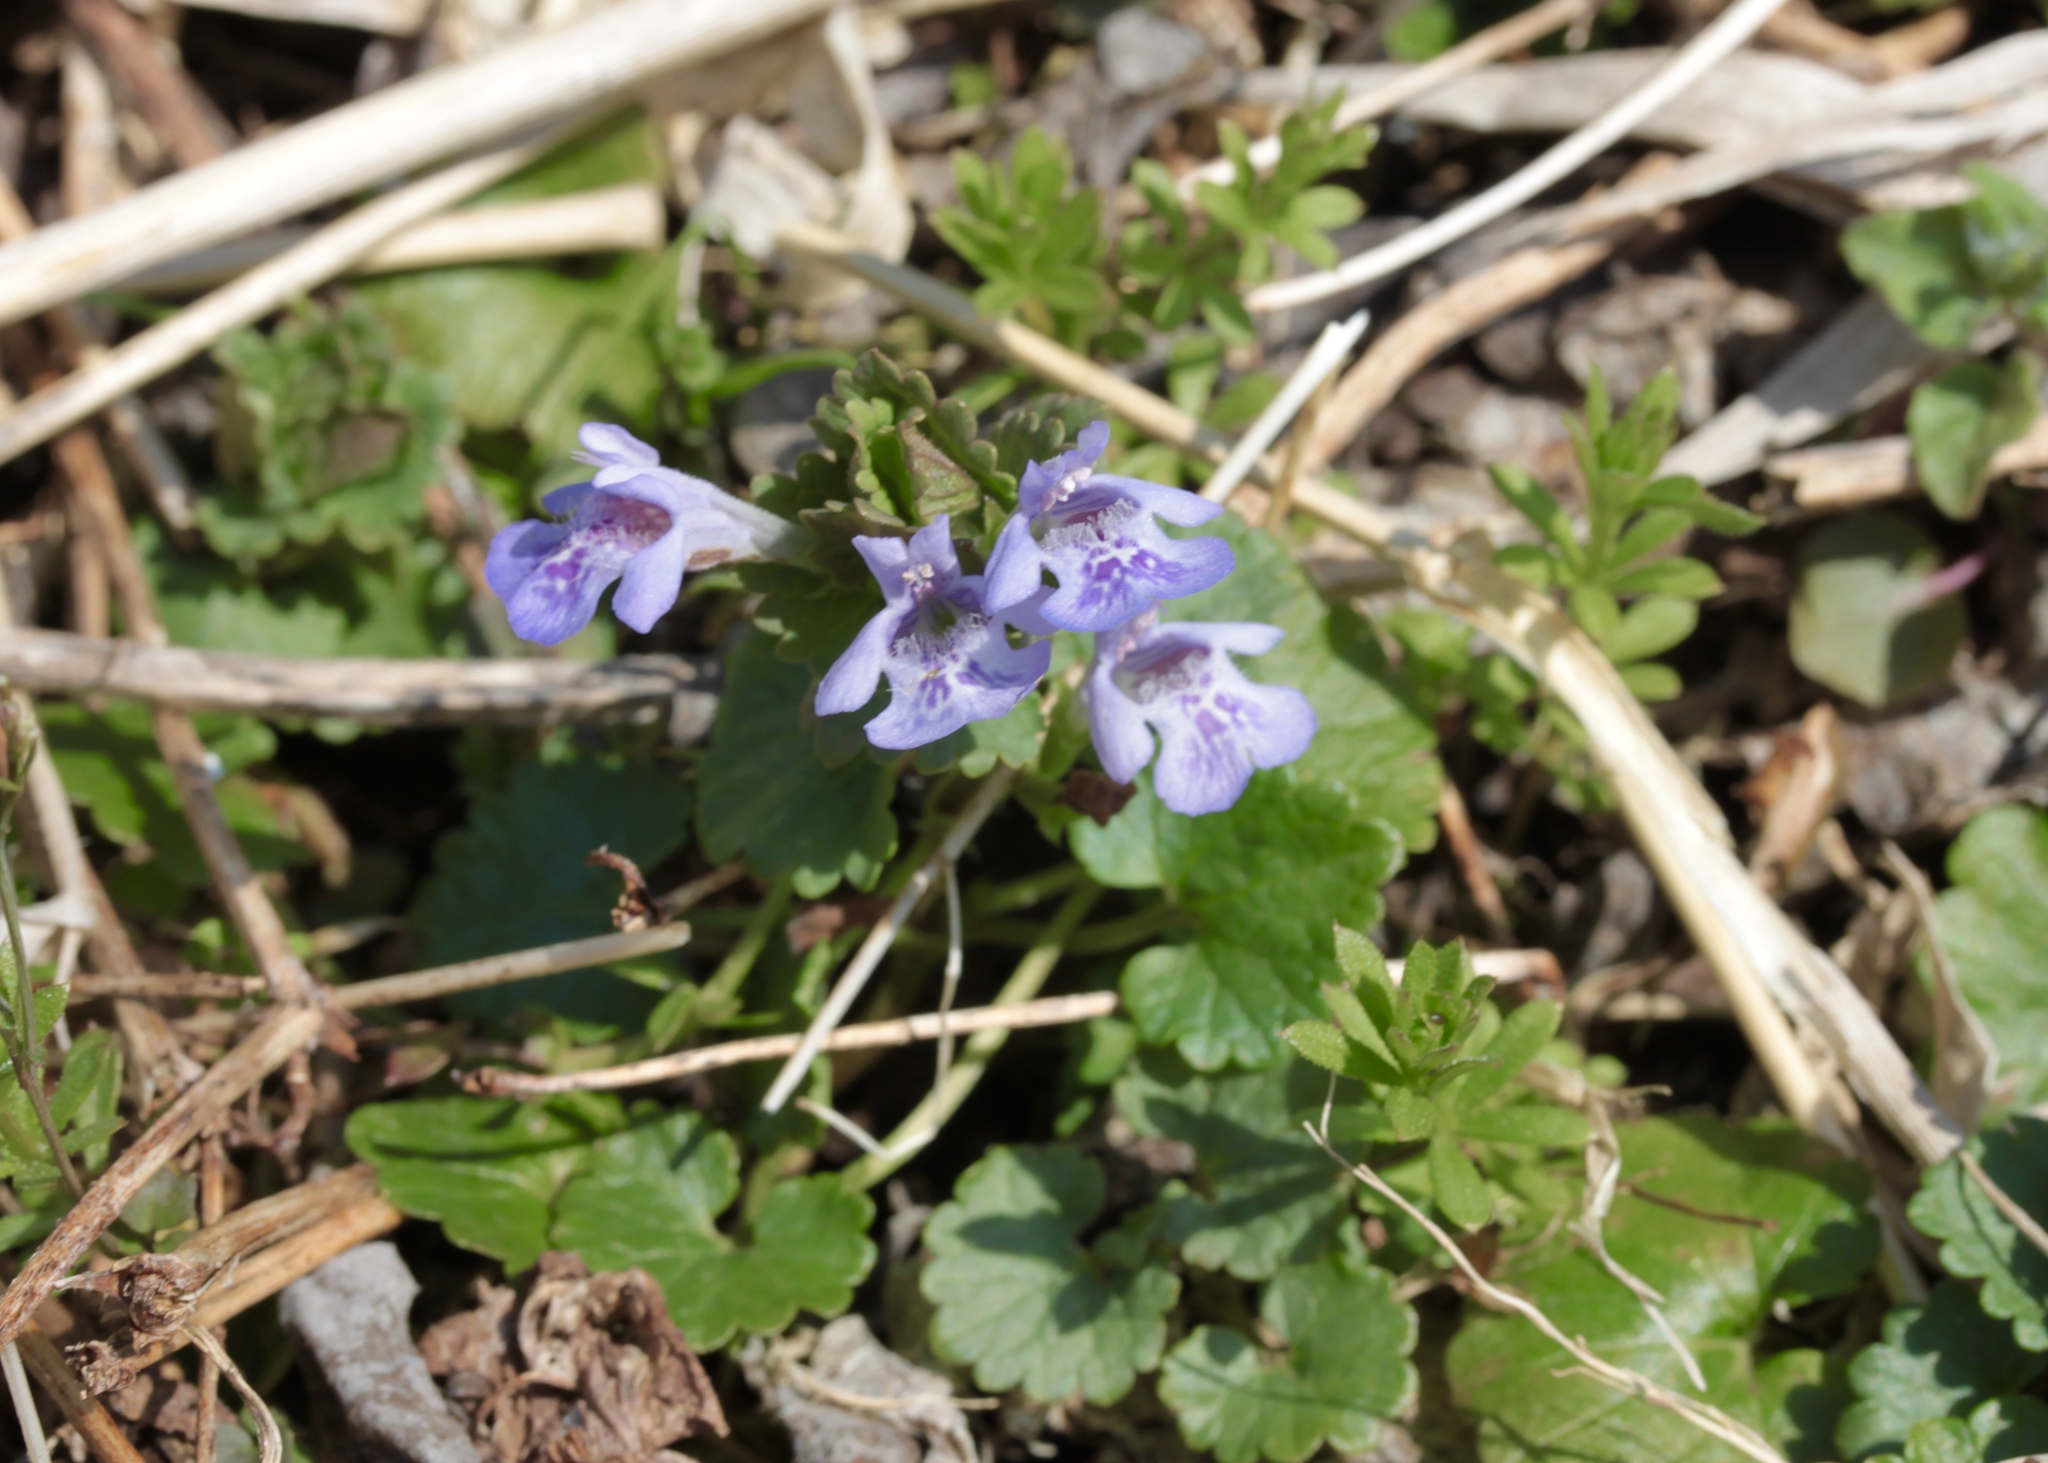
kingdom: Plantae
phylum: Tracheophyta
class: Magnoliopsida
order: Lamiales
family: Lamiaceae
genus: Glechoma
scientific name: Glechoma hederacea
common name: Ground ivy
